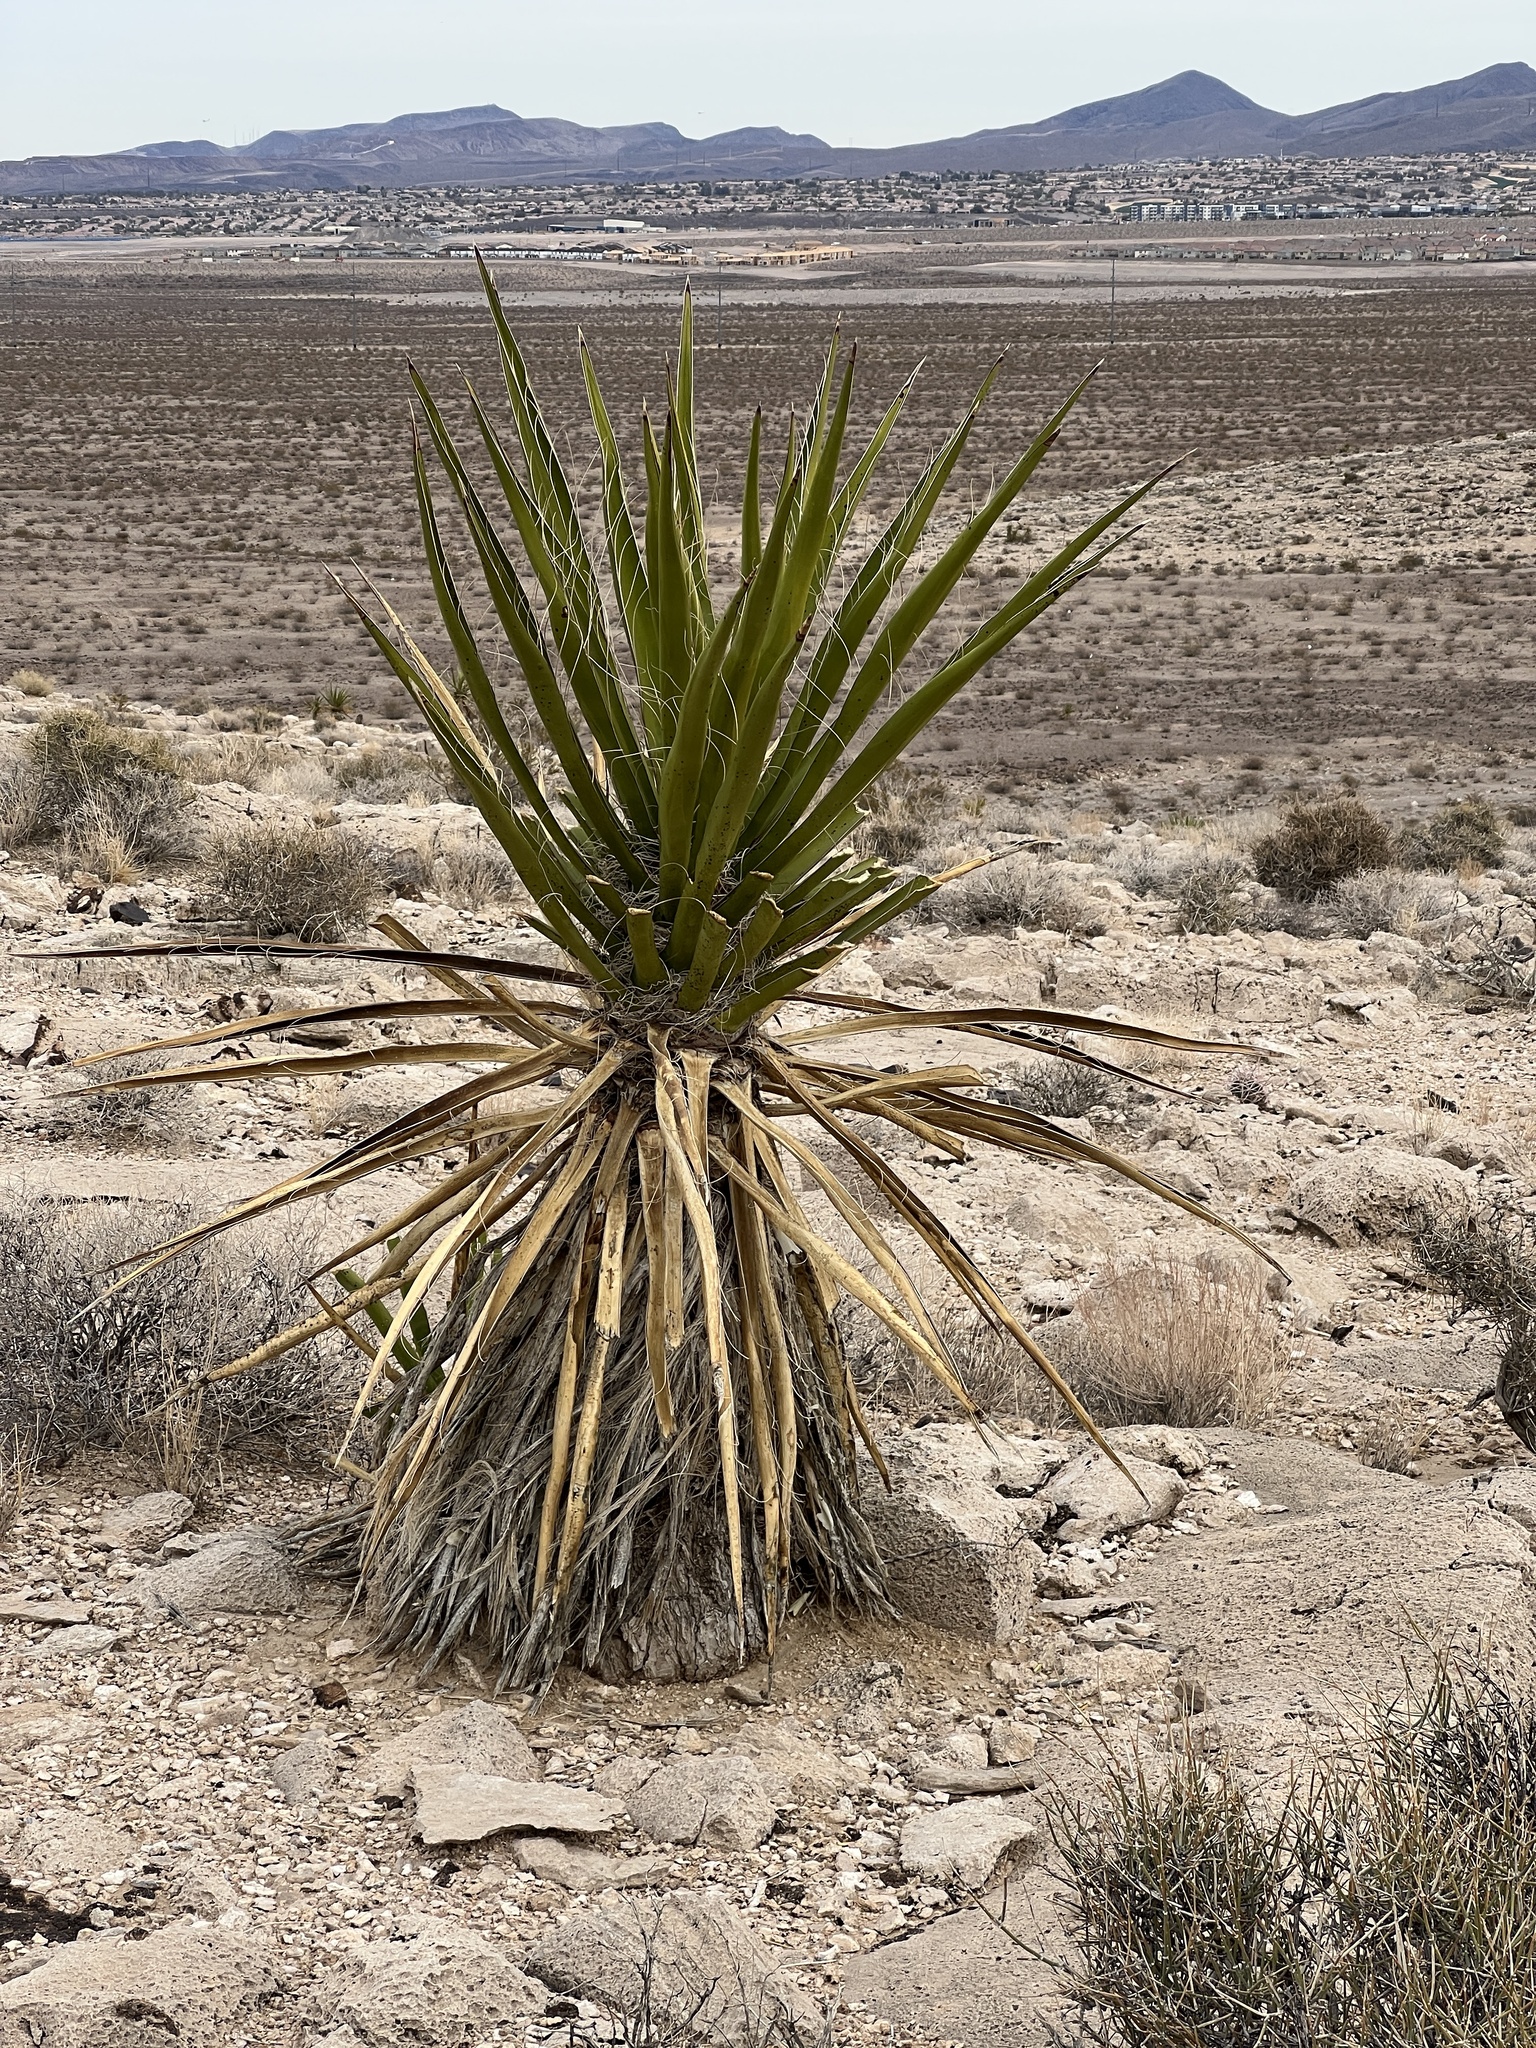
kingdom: Plantae
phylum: Tracheophyta
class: Liliopsida
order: Asparagales
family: Asparagaceae
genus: Yucca
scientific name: Yucca schidigera
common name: Mojave yucca
